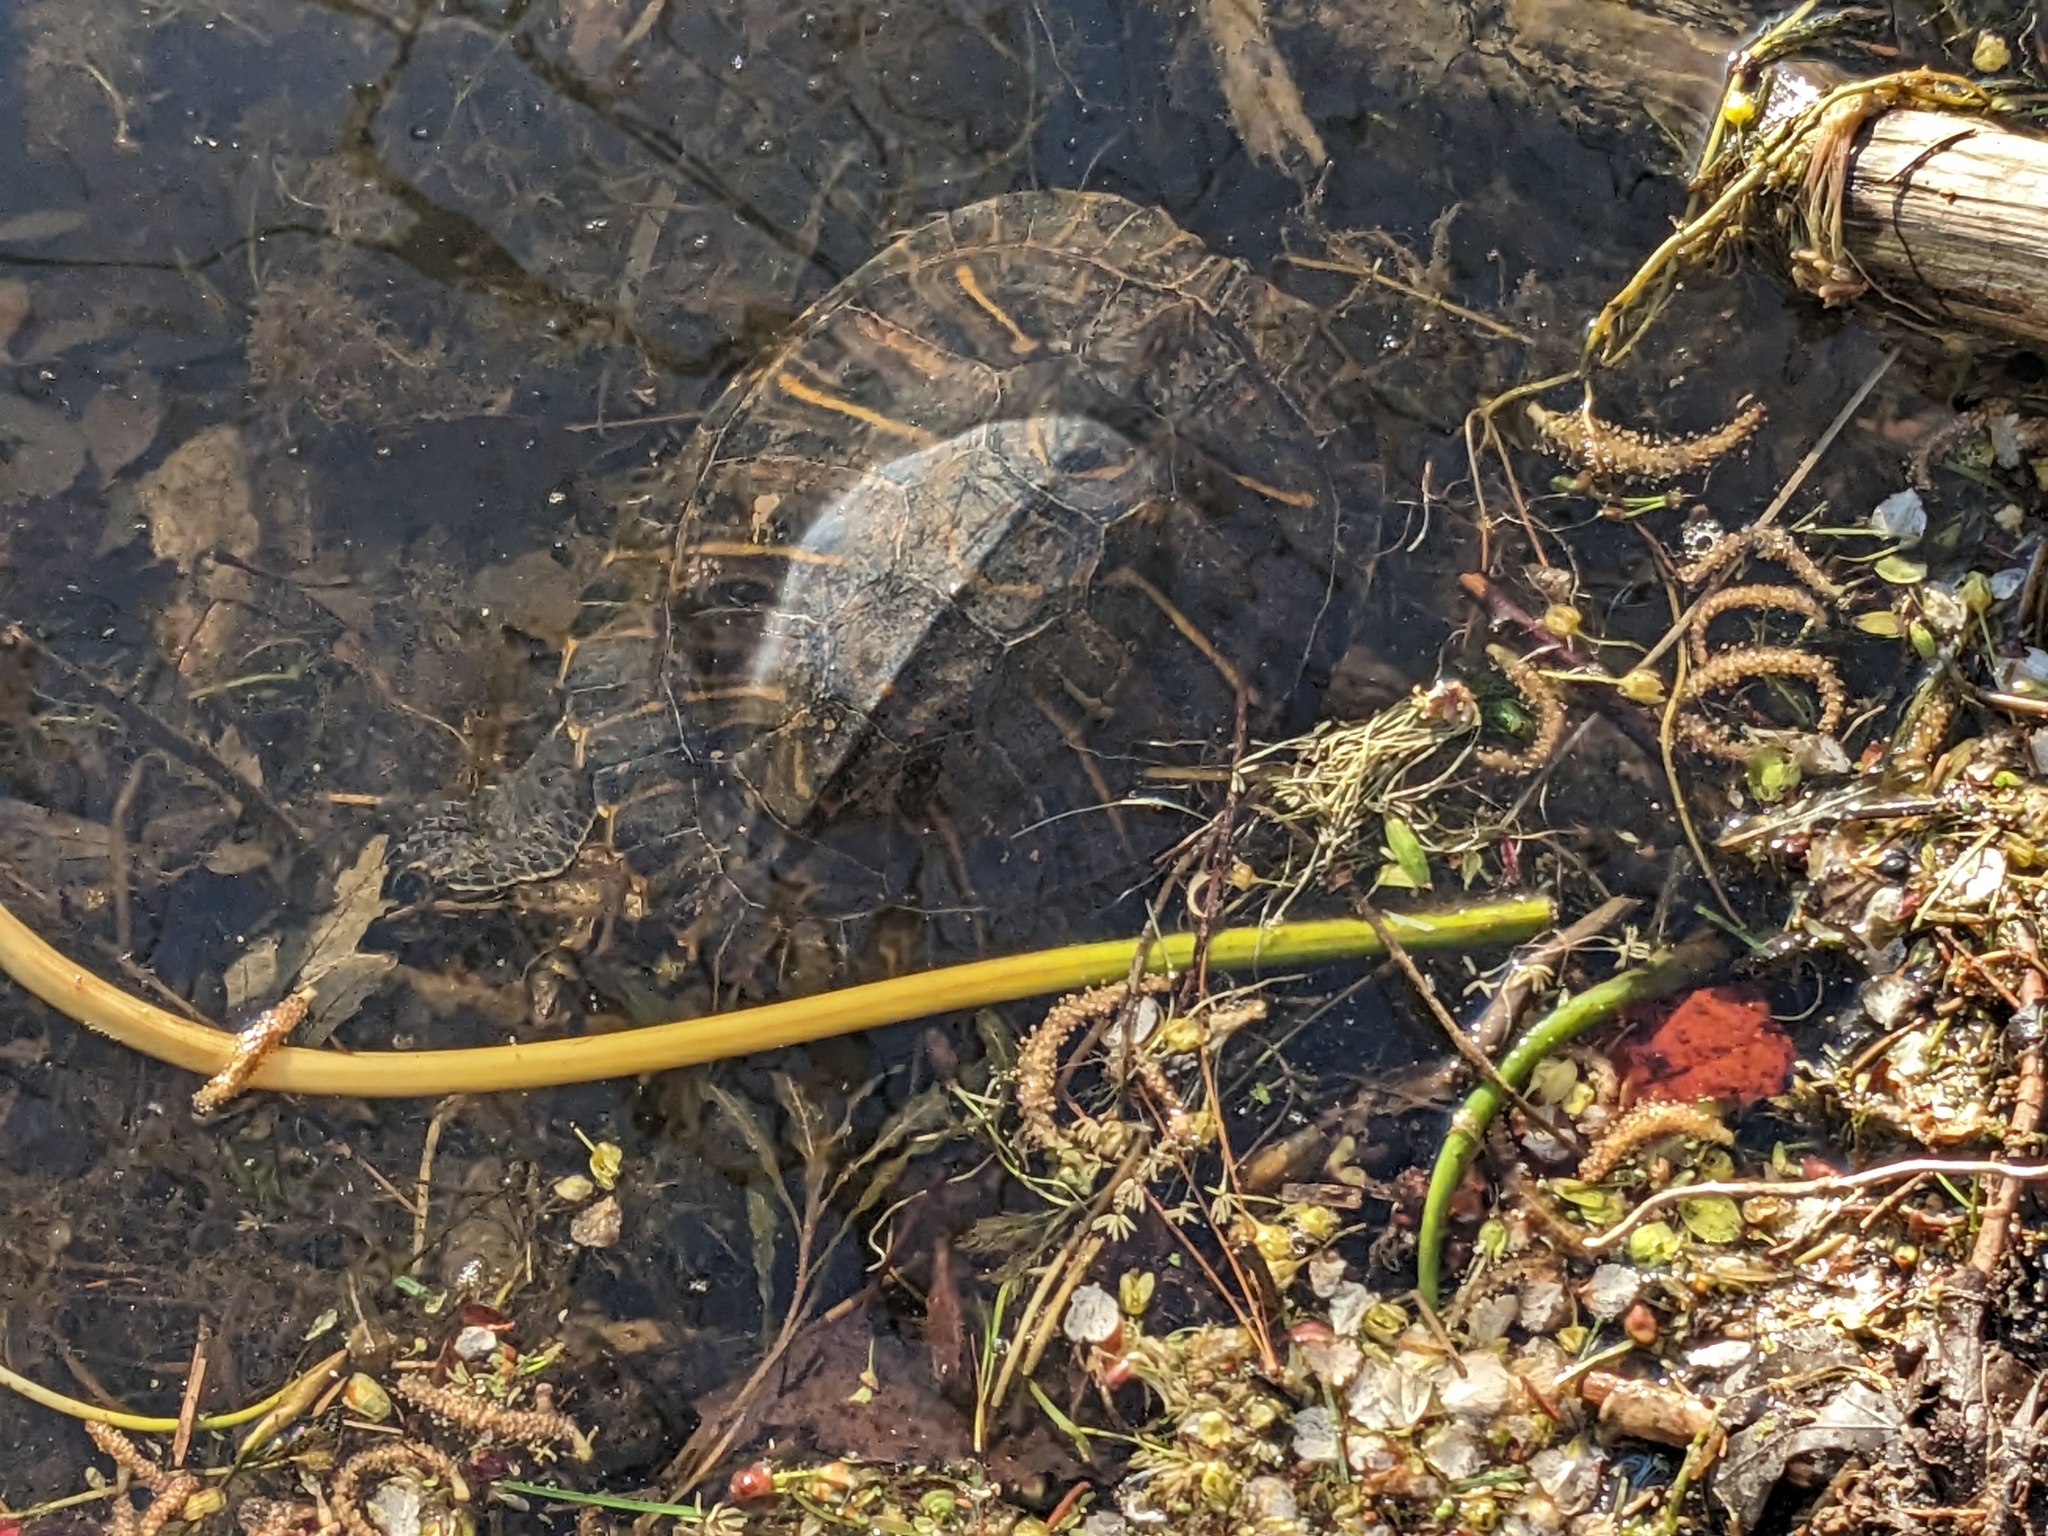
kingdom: Animalia
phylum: Chordata
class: Testudines
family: Emydidae
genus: Trachemys
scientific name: Trachemys scripta
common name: Slider
